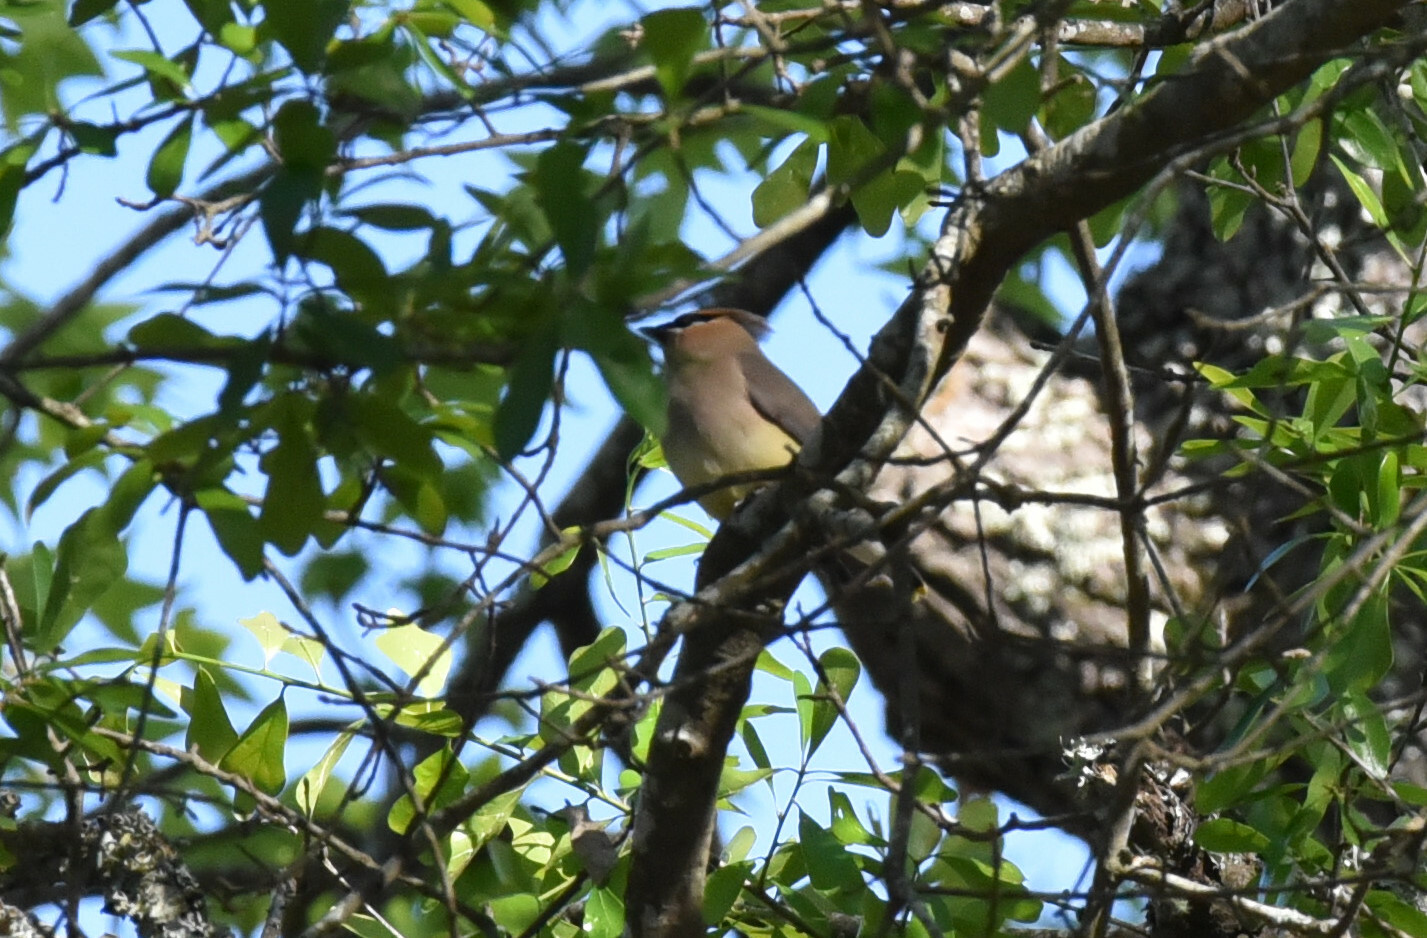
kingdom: Animalia
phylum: Chordata
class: Aves
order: Passeriformes
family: Bombycillidae
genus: Bombycilla
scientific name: Bombycilla cedrorum
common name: Cedar waxwing
